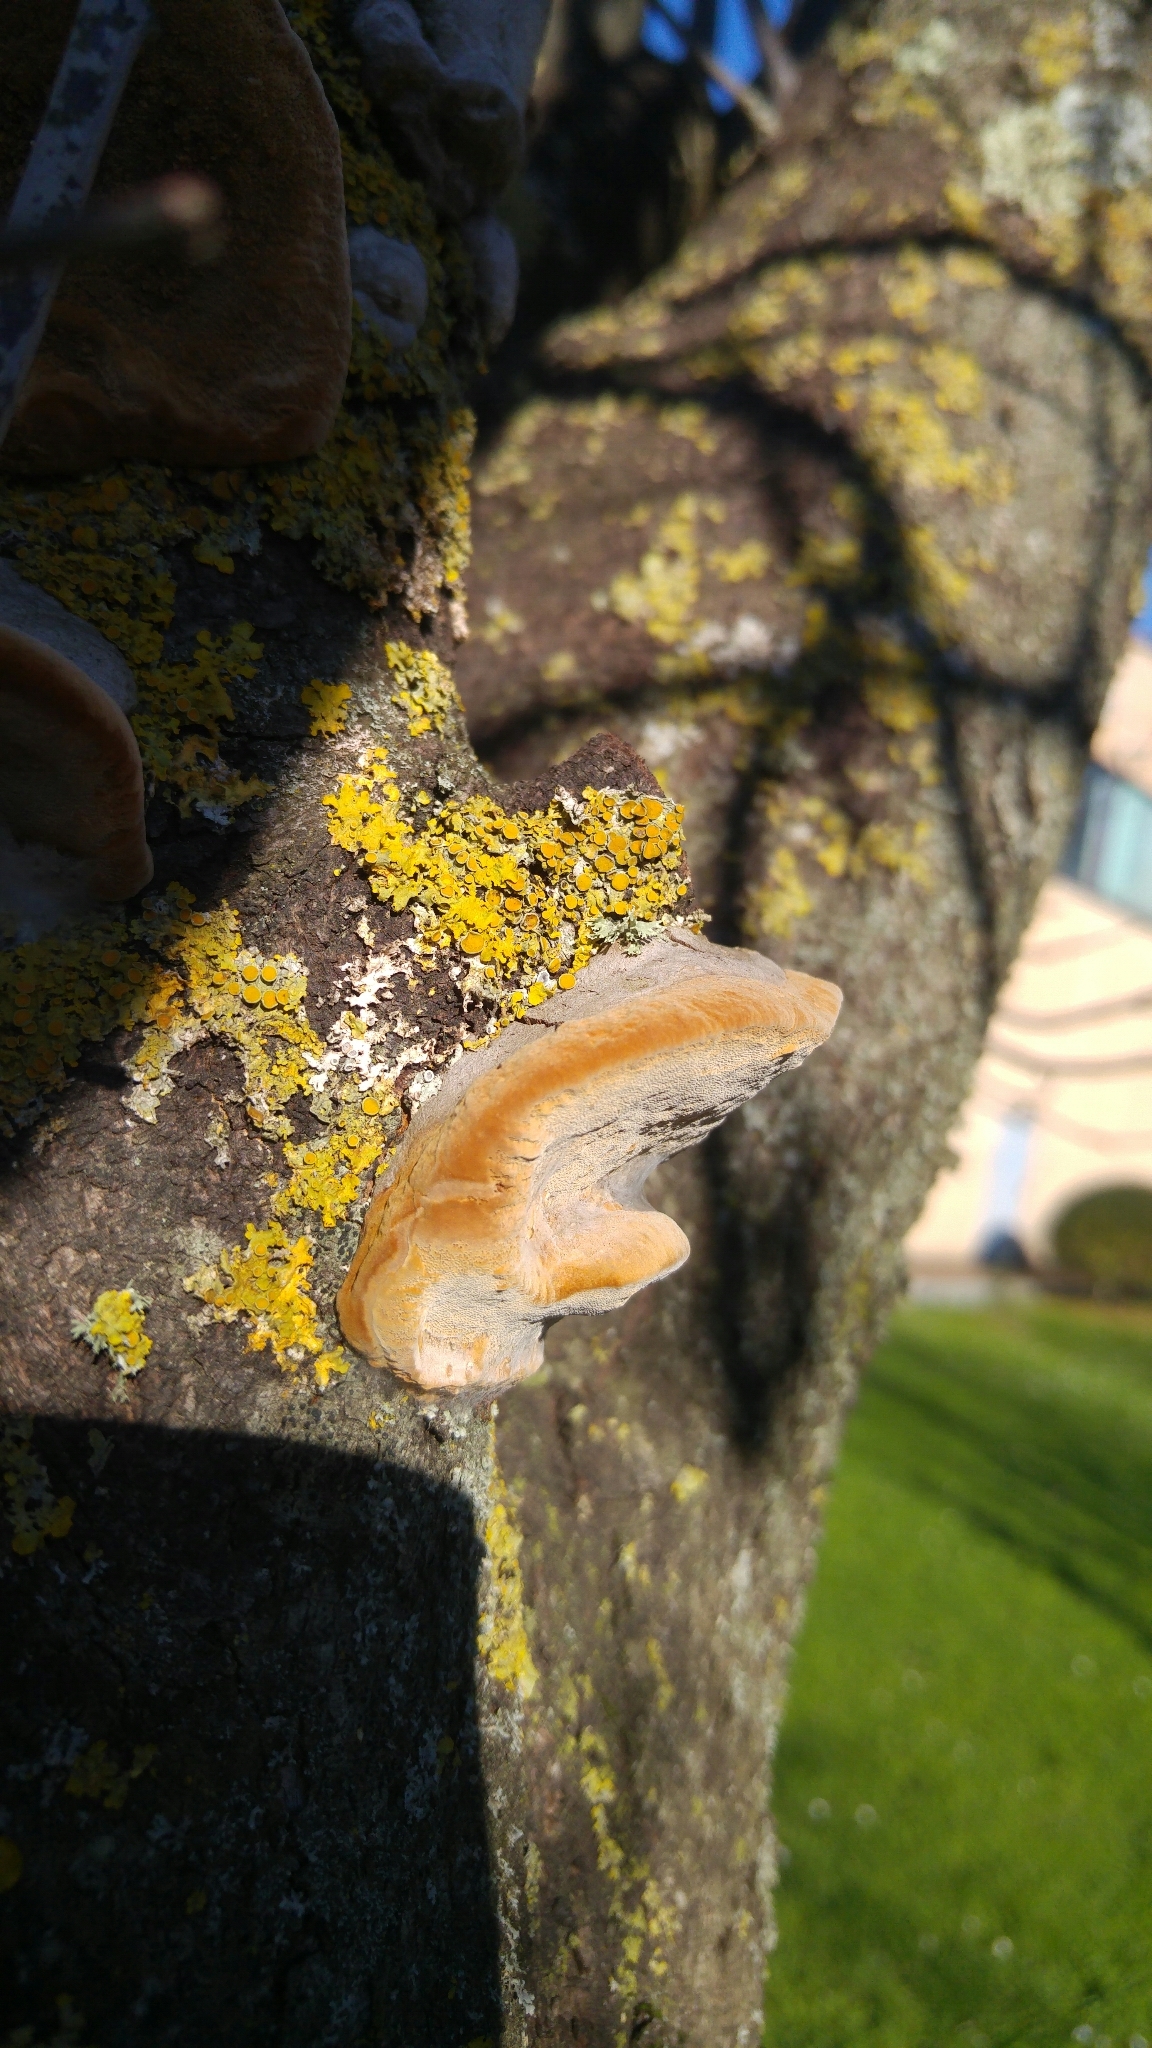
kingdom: Fungi
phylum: Ascomycota
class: Lecanoromycetes
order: Teloschistales
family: Teloschistaceae
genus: Xanthoria
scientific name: Xanthoria parietina
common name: Common orange lichen
